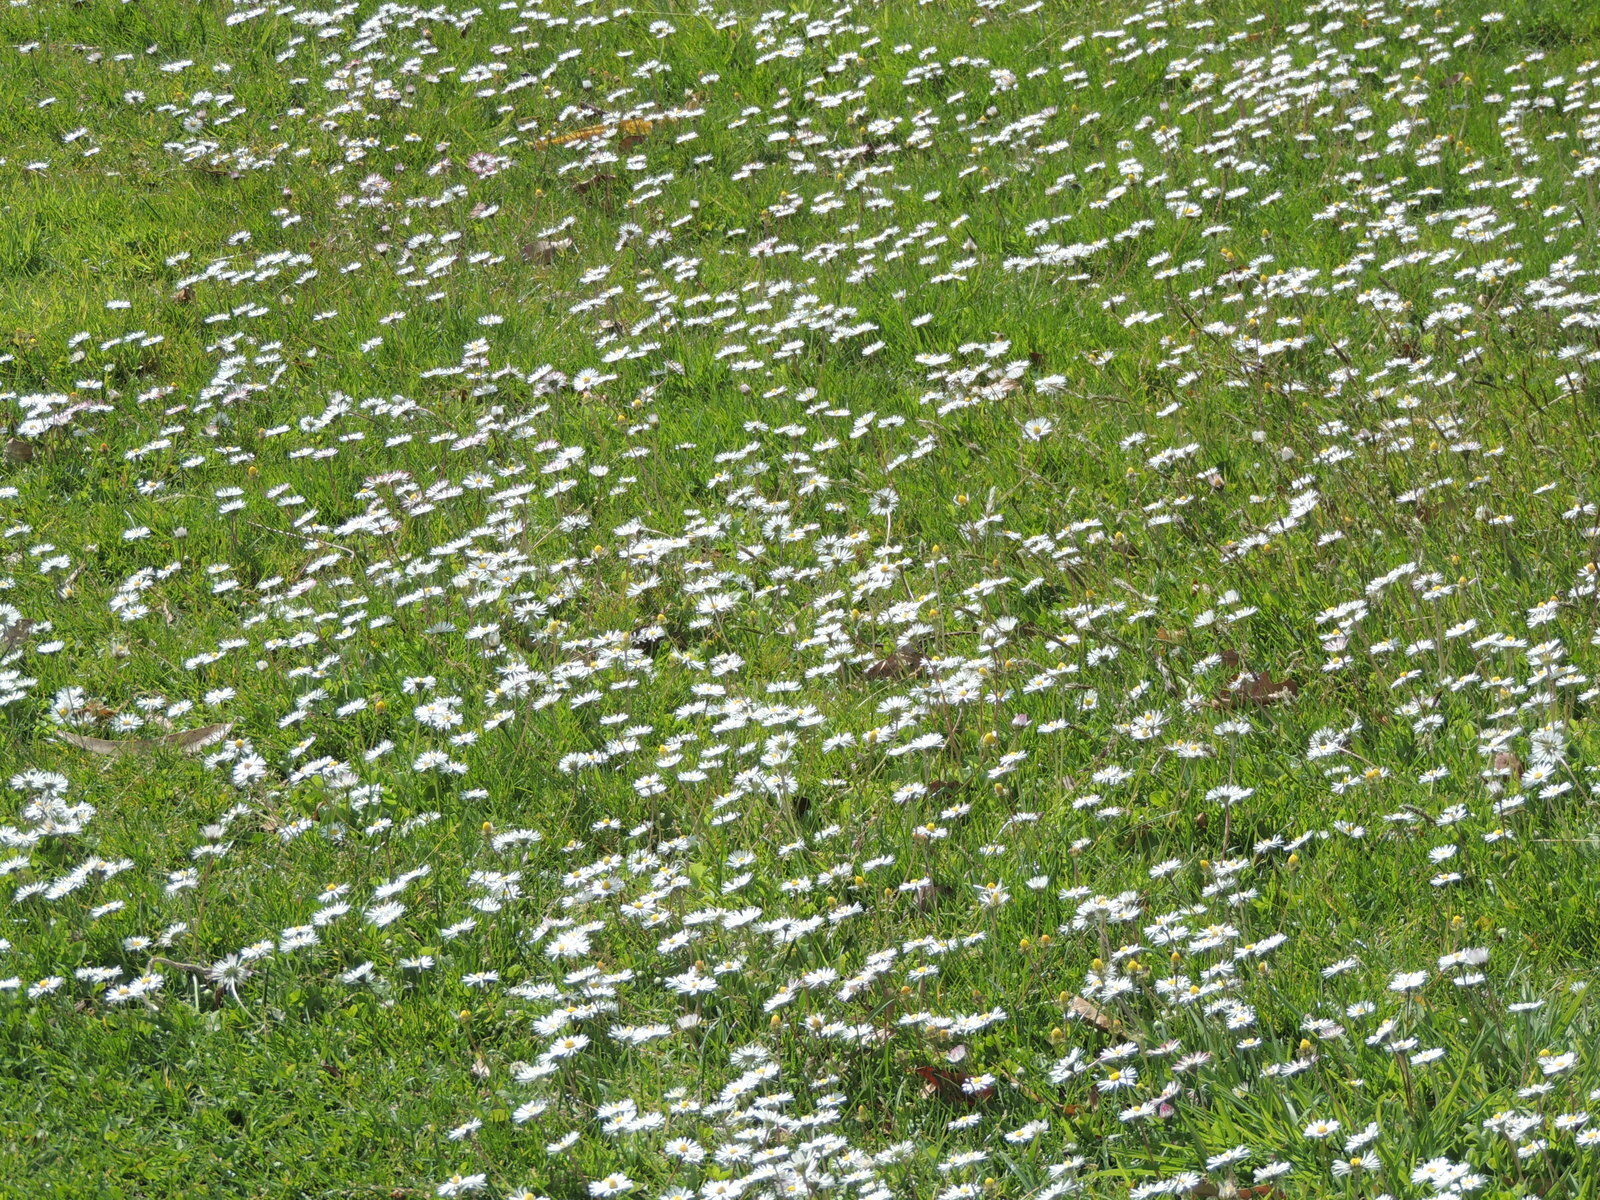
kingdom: Plantae
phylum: Tracheophyta
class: Magnoliopsida
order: Asterales
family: Asteraceae
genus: Bellis
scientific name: Bellis perennis
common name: Lawndaisy
